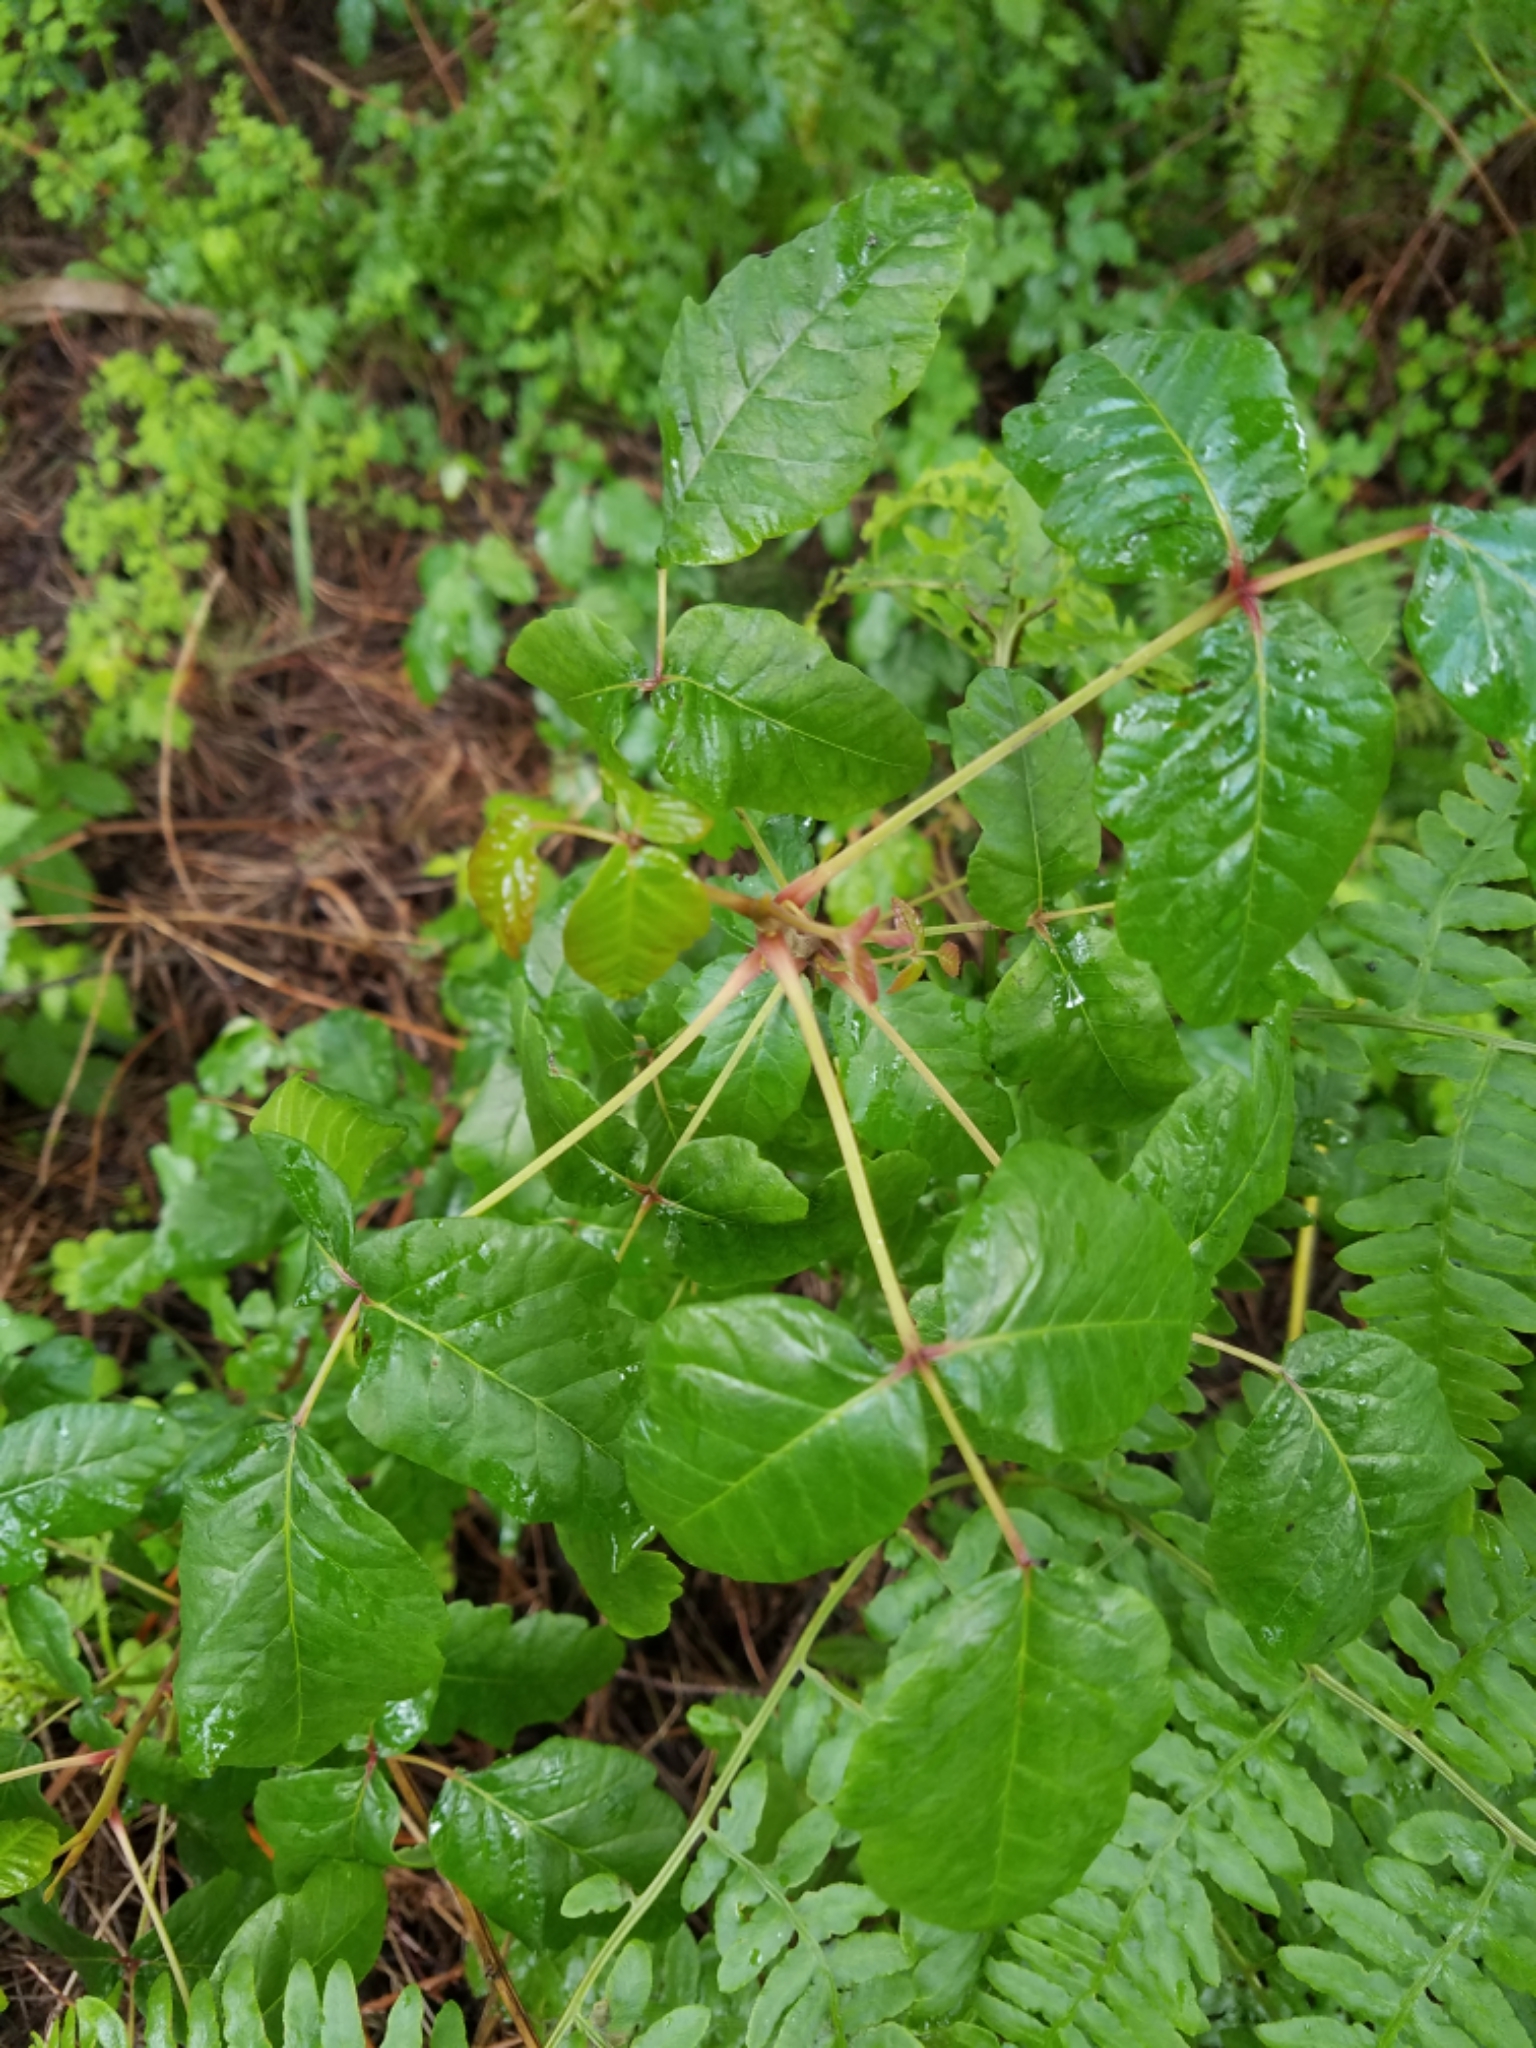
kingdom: Plantae
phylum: Tracheophyta
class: Magnoliopsida
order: Sapindales
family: Anacardiaceae
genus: Toxicodendron
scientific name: Toxicodendron diversilobum
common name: Pacific poison-oak
